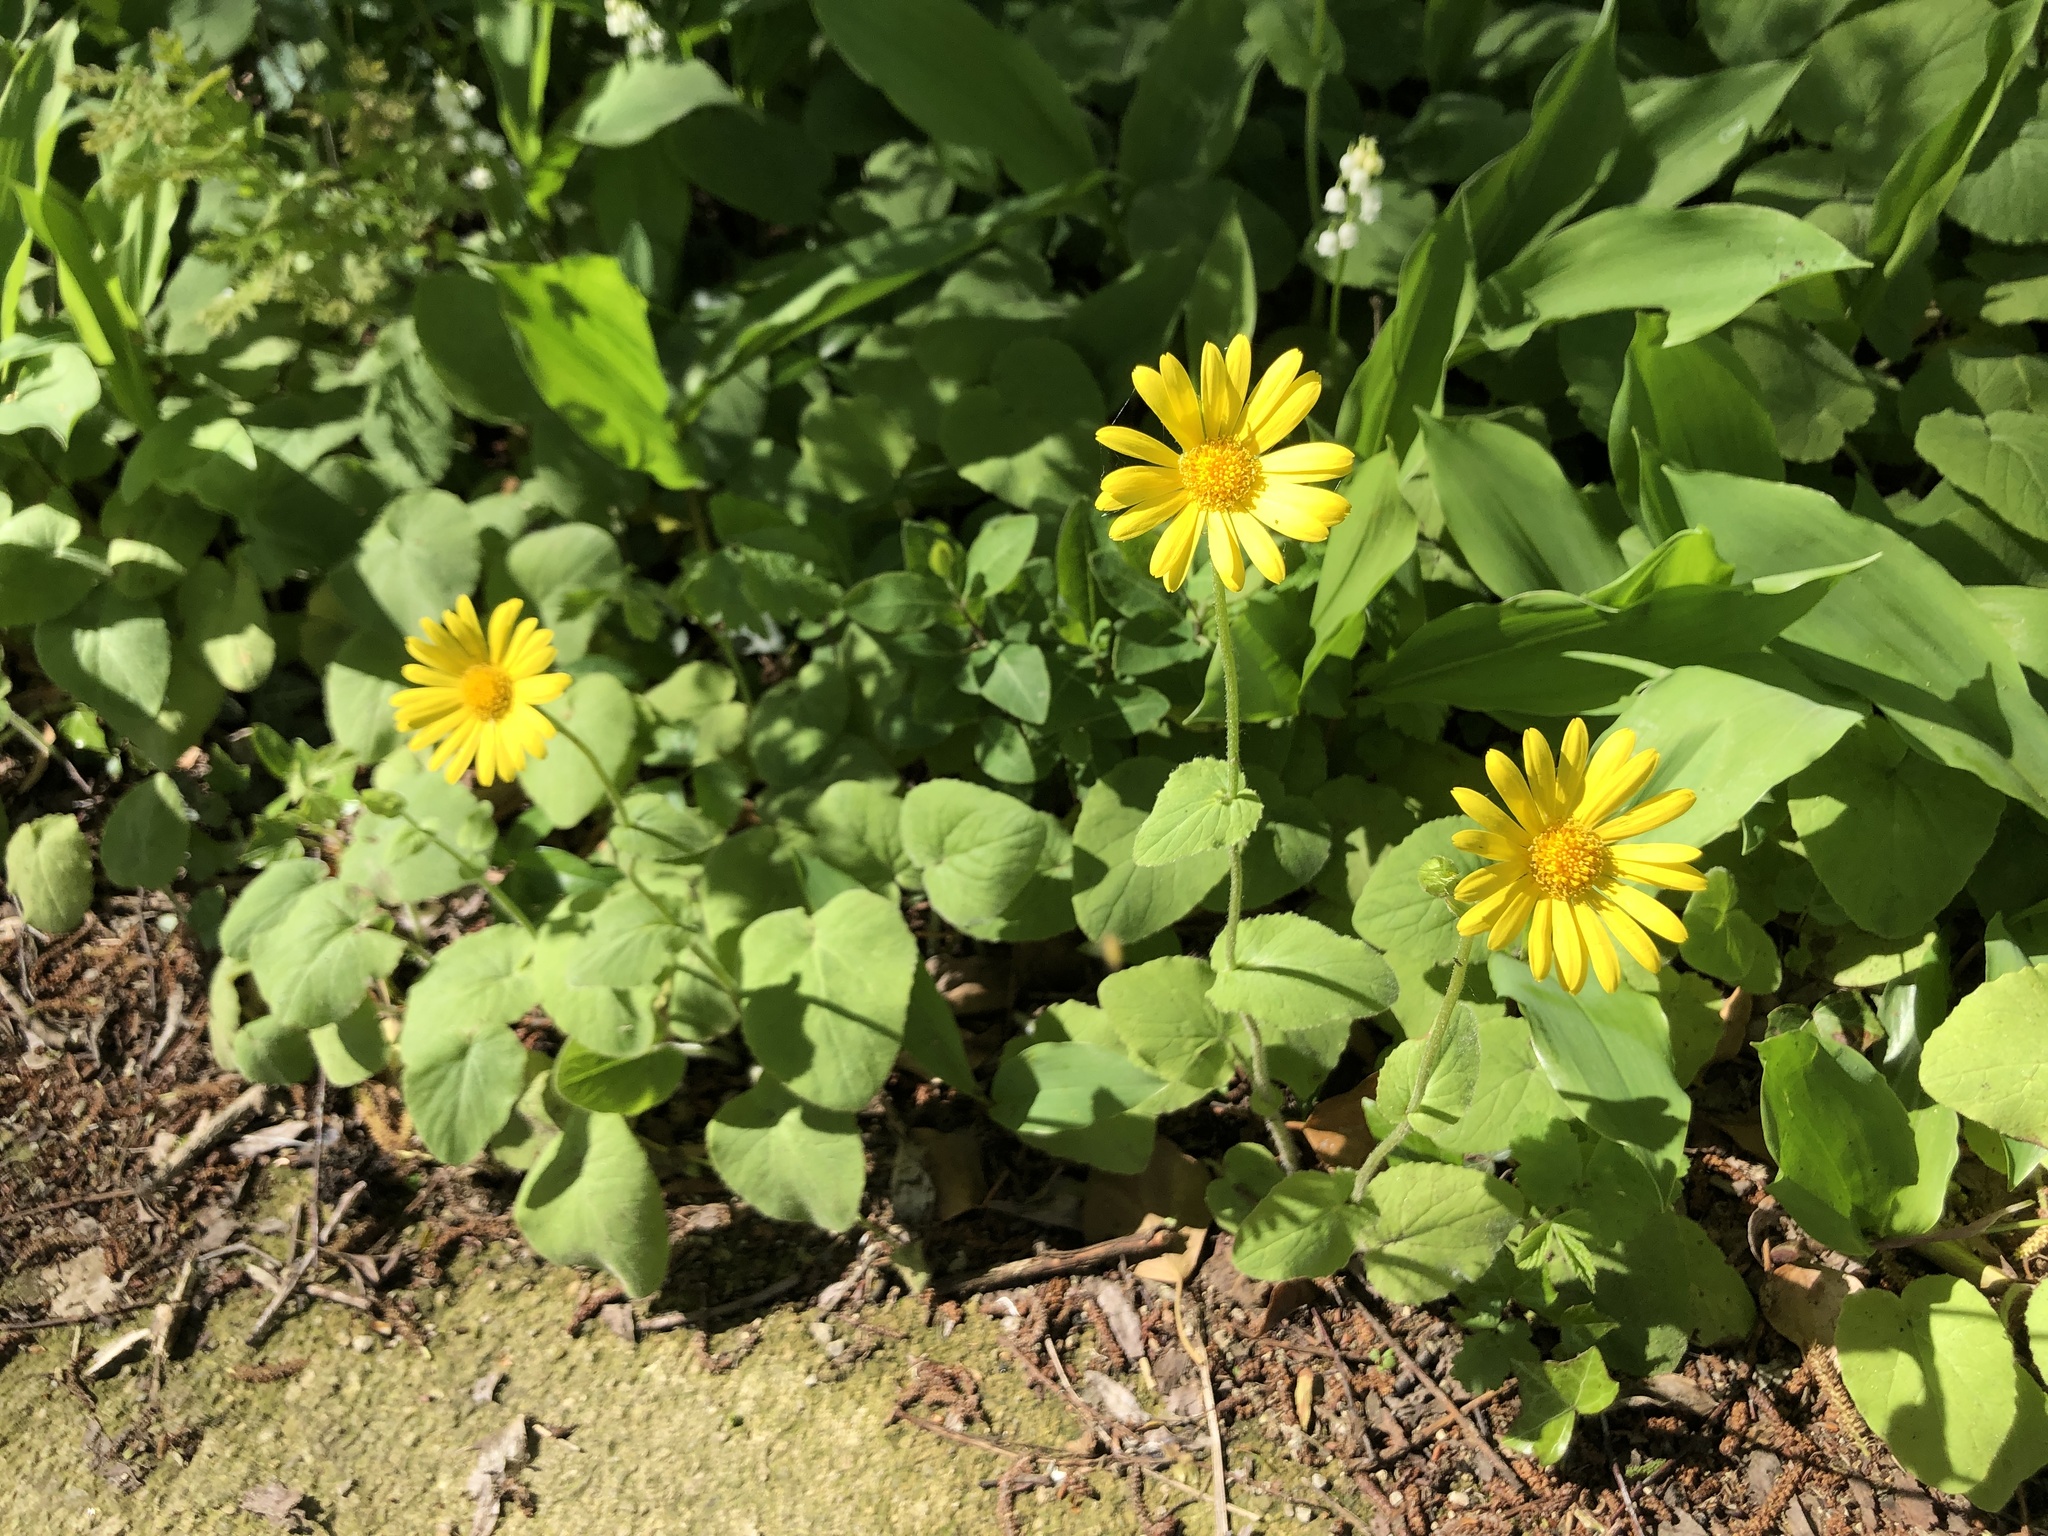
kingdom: Plantae
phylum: Tracheophyta
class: Magnoliopsida
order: Asterales
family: Asteraceae
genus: Doronicum
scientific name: Doronicum grandiflorum
